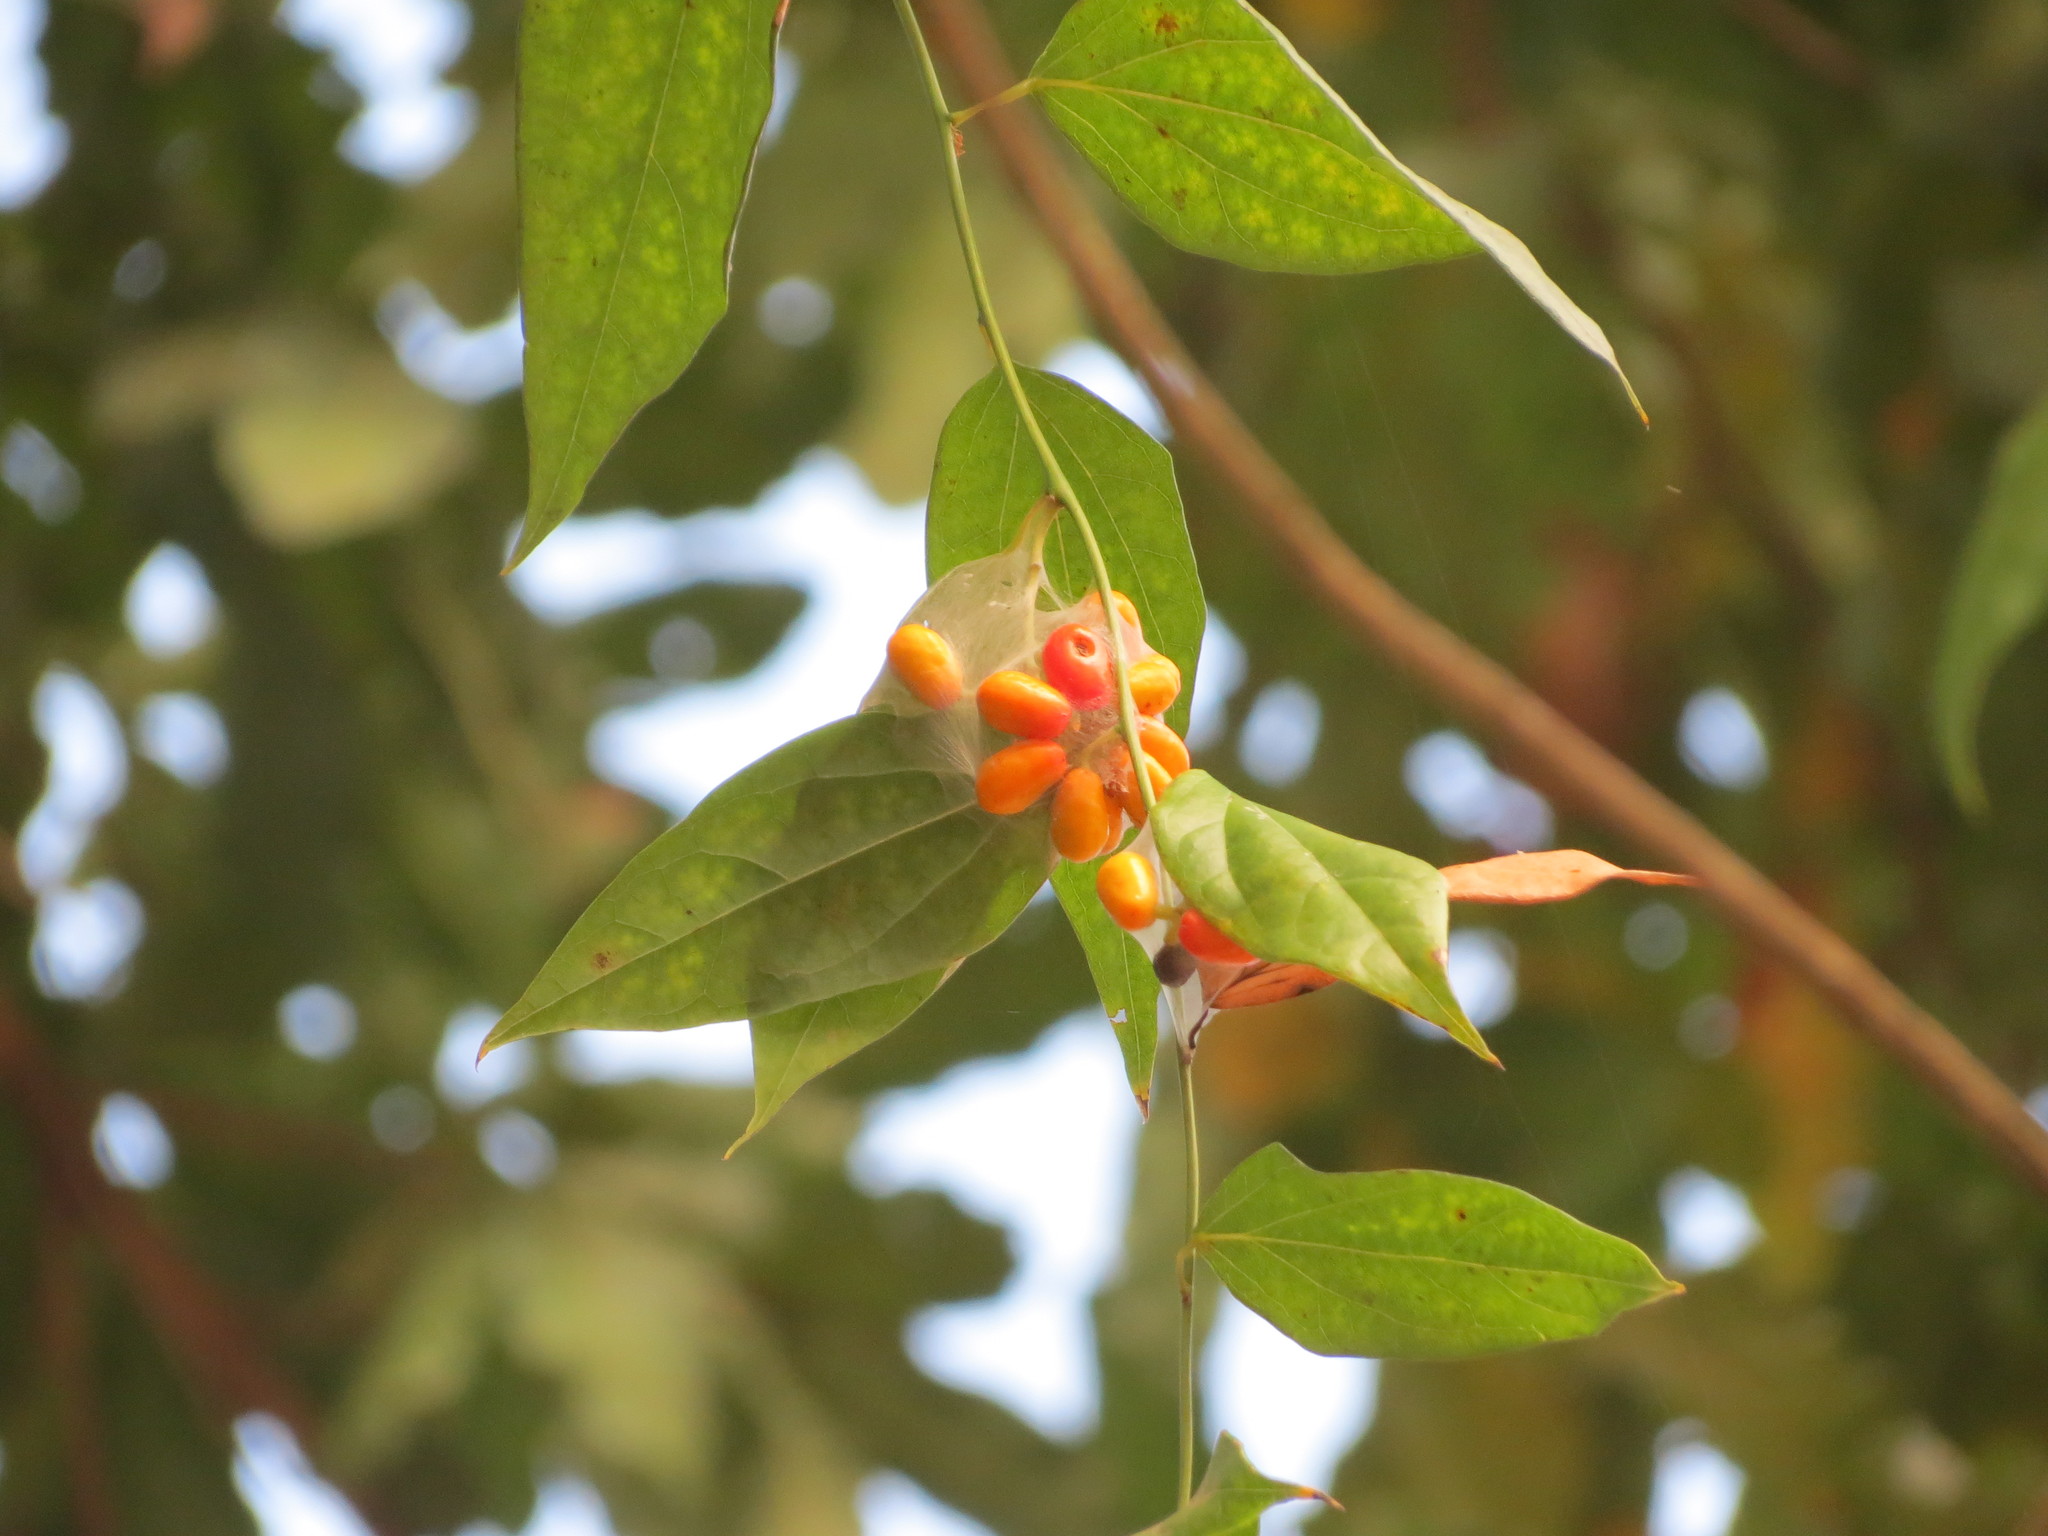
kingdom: Plantae
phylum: Tracheophyta
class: Magnoliopsida
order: Ranunculales
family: Menispermaceae
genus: Tiliacora
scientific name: Tiliacora acuminata
